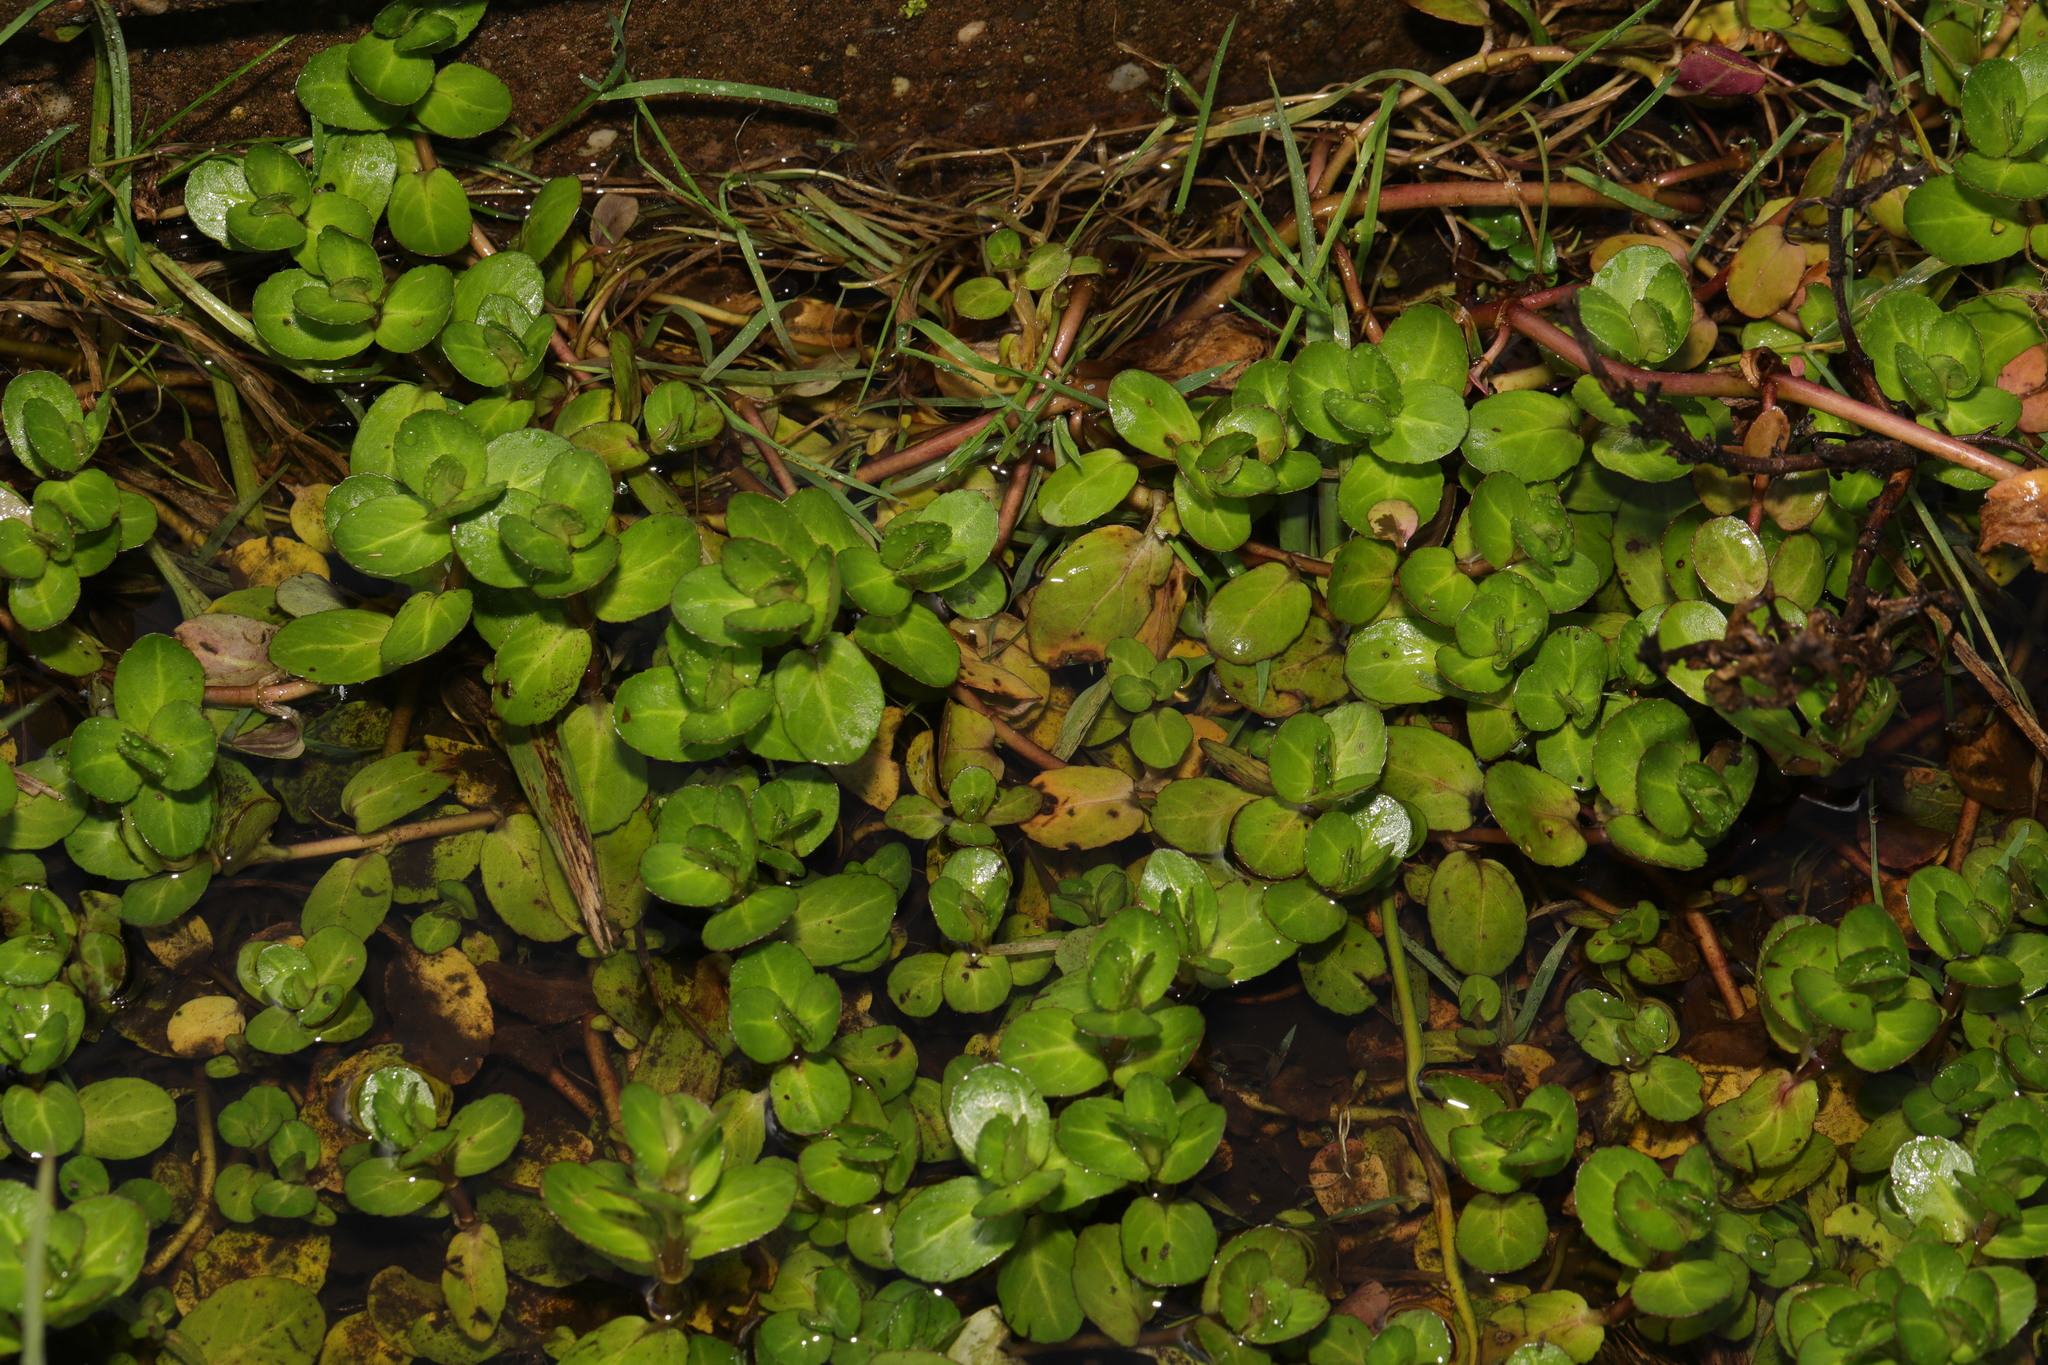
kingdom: Plantae
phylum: Tracheophyta
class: Magnoliopsida
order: Lamiales
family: Plantaginaceae
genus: Veronica
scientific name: Veronica beccabunga
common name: Brooklime
